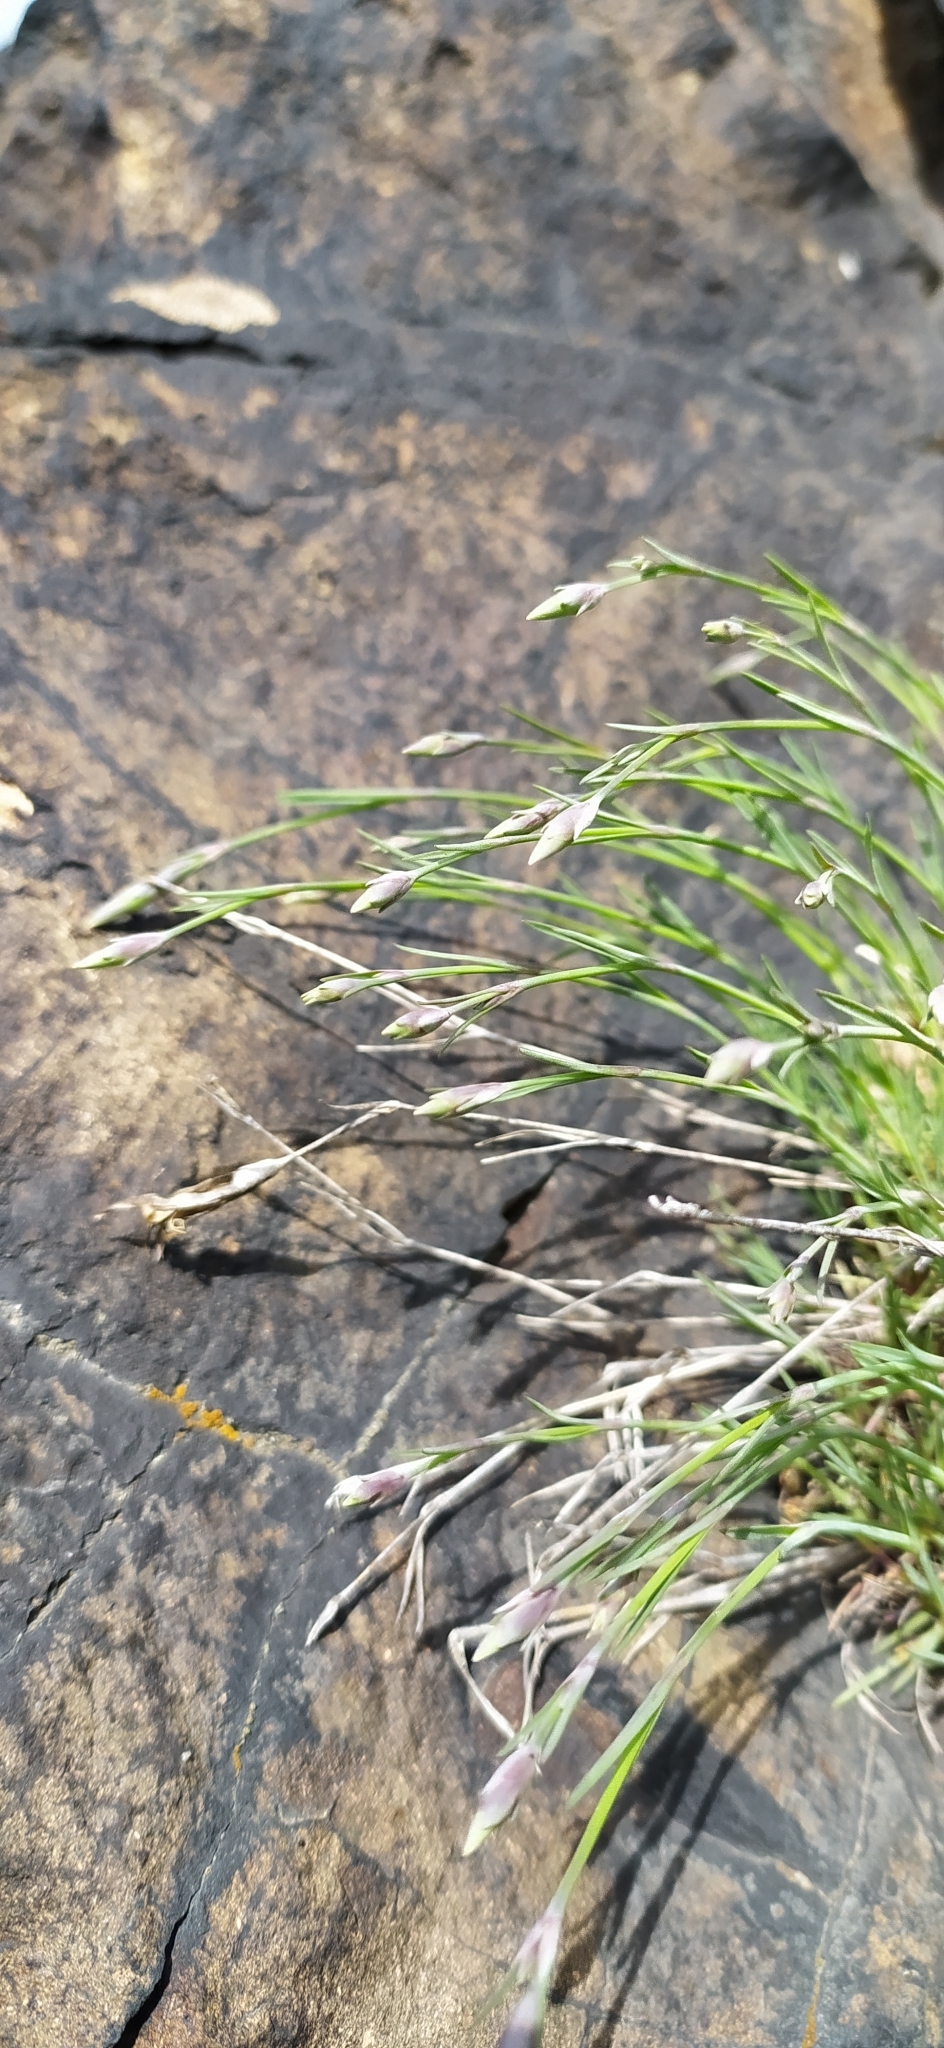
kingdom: Plantae
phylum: Tracheophyta
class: Magnoliopsida
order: Caryophyllales
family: Caryophyllaceae
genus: Dianthus
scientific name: Dianthus acicularis
